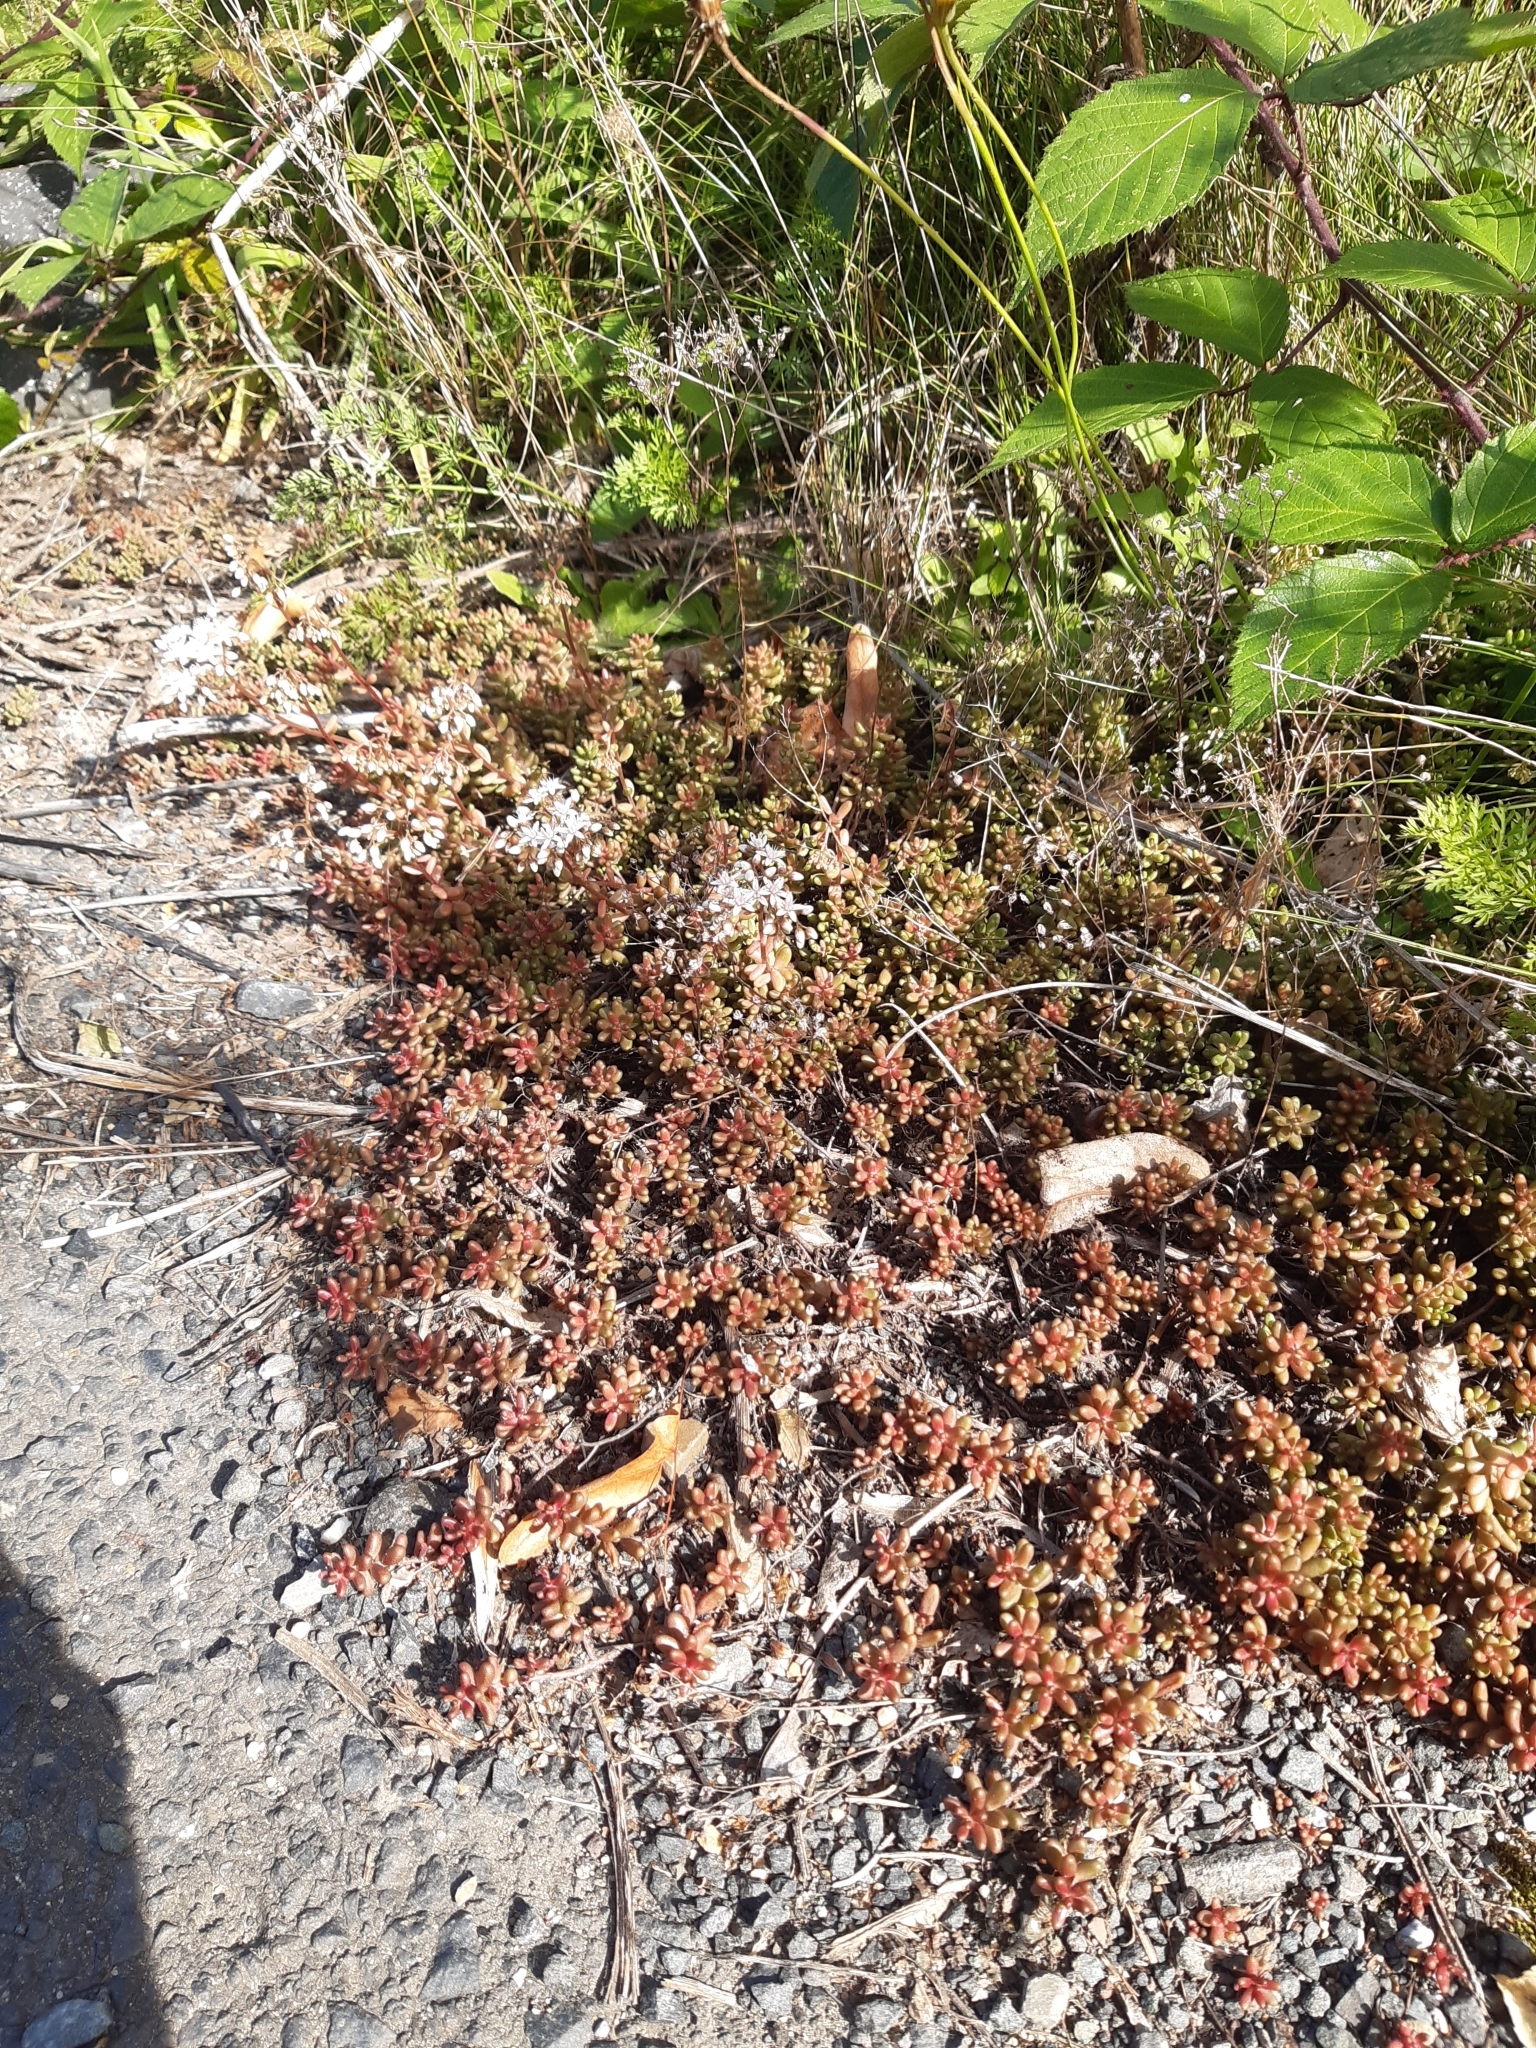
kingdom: Plantae
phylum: Tracheophyta
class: Magnoliopsida
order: Saxifragales
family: Crassulaceae
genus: Sedum
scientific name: Sedum album
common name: White stonecrop
